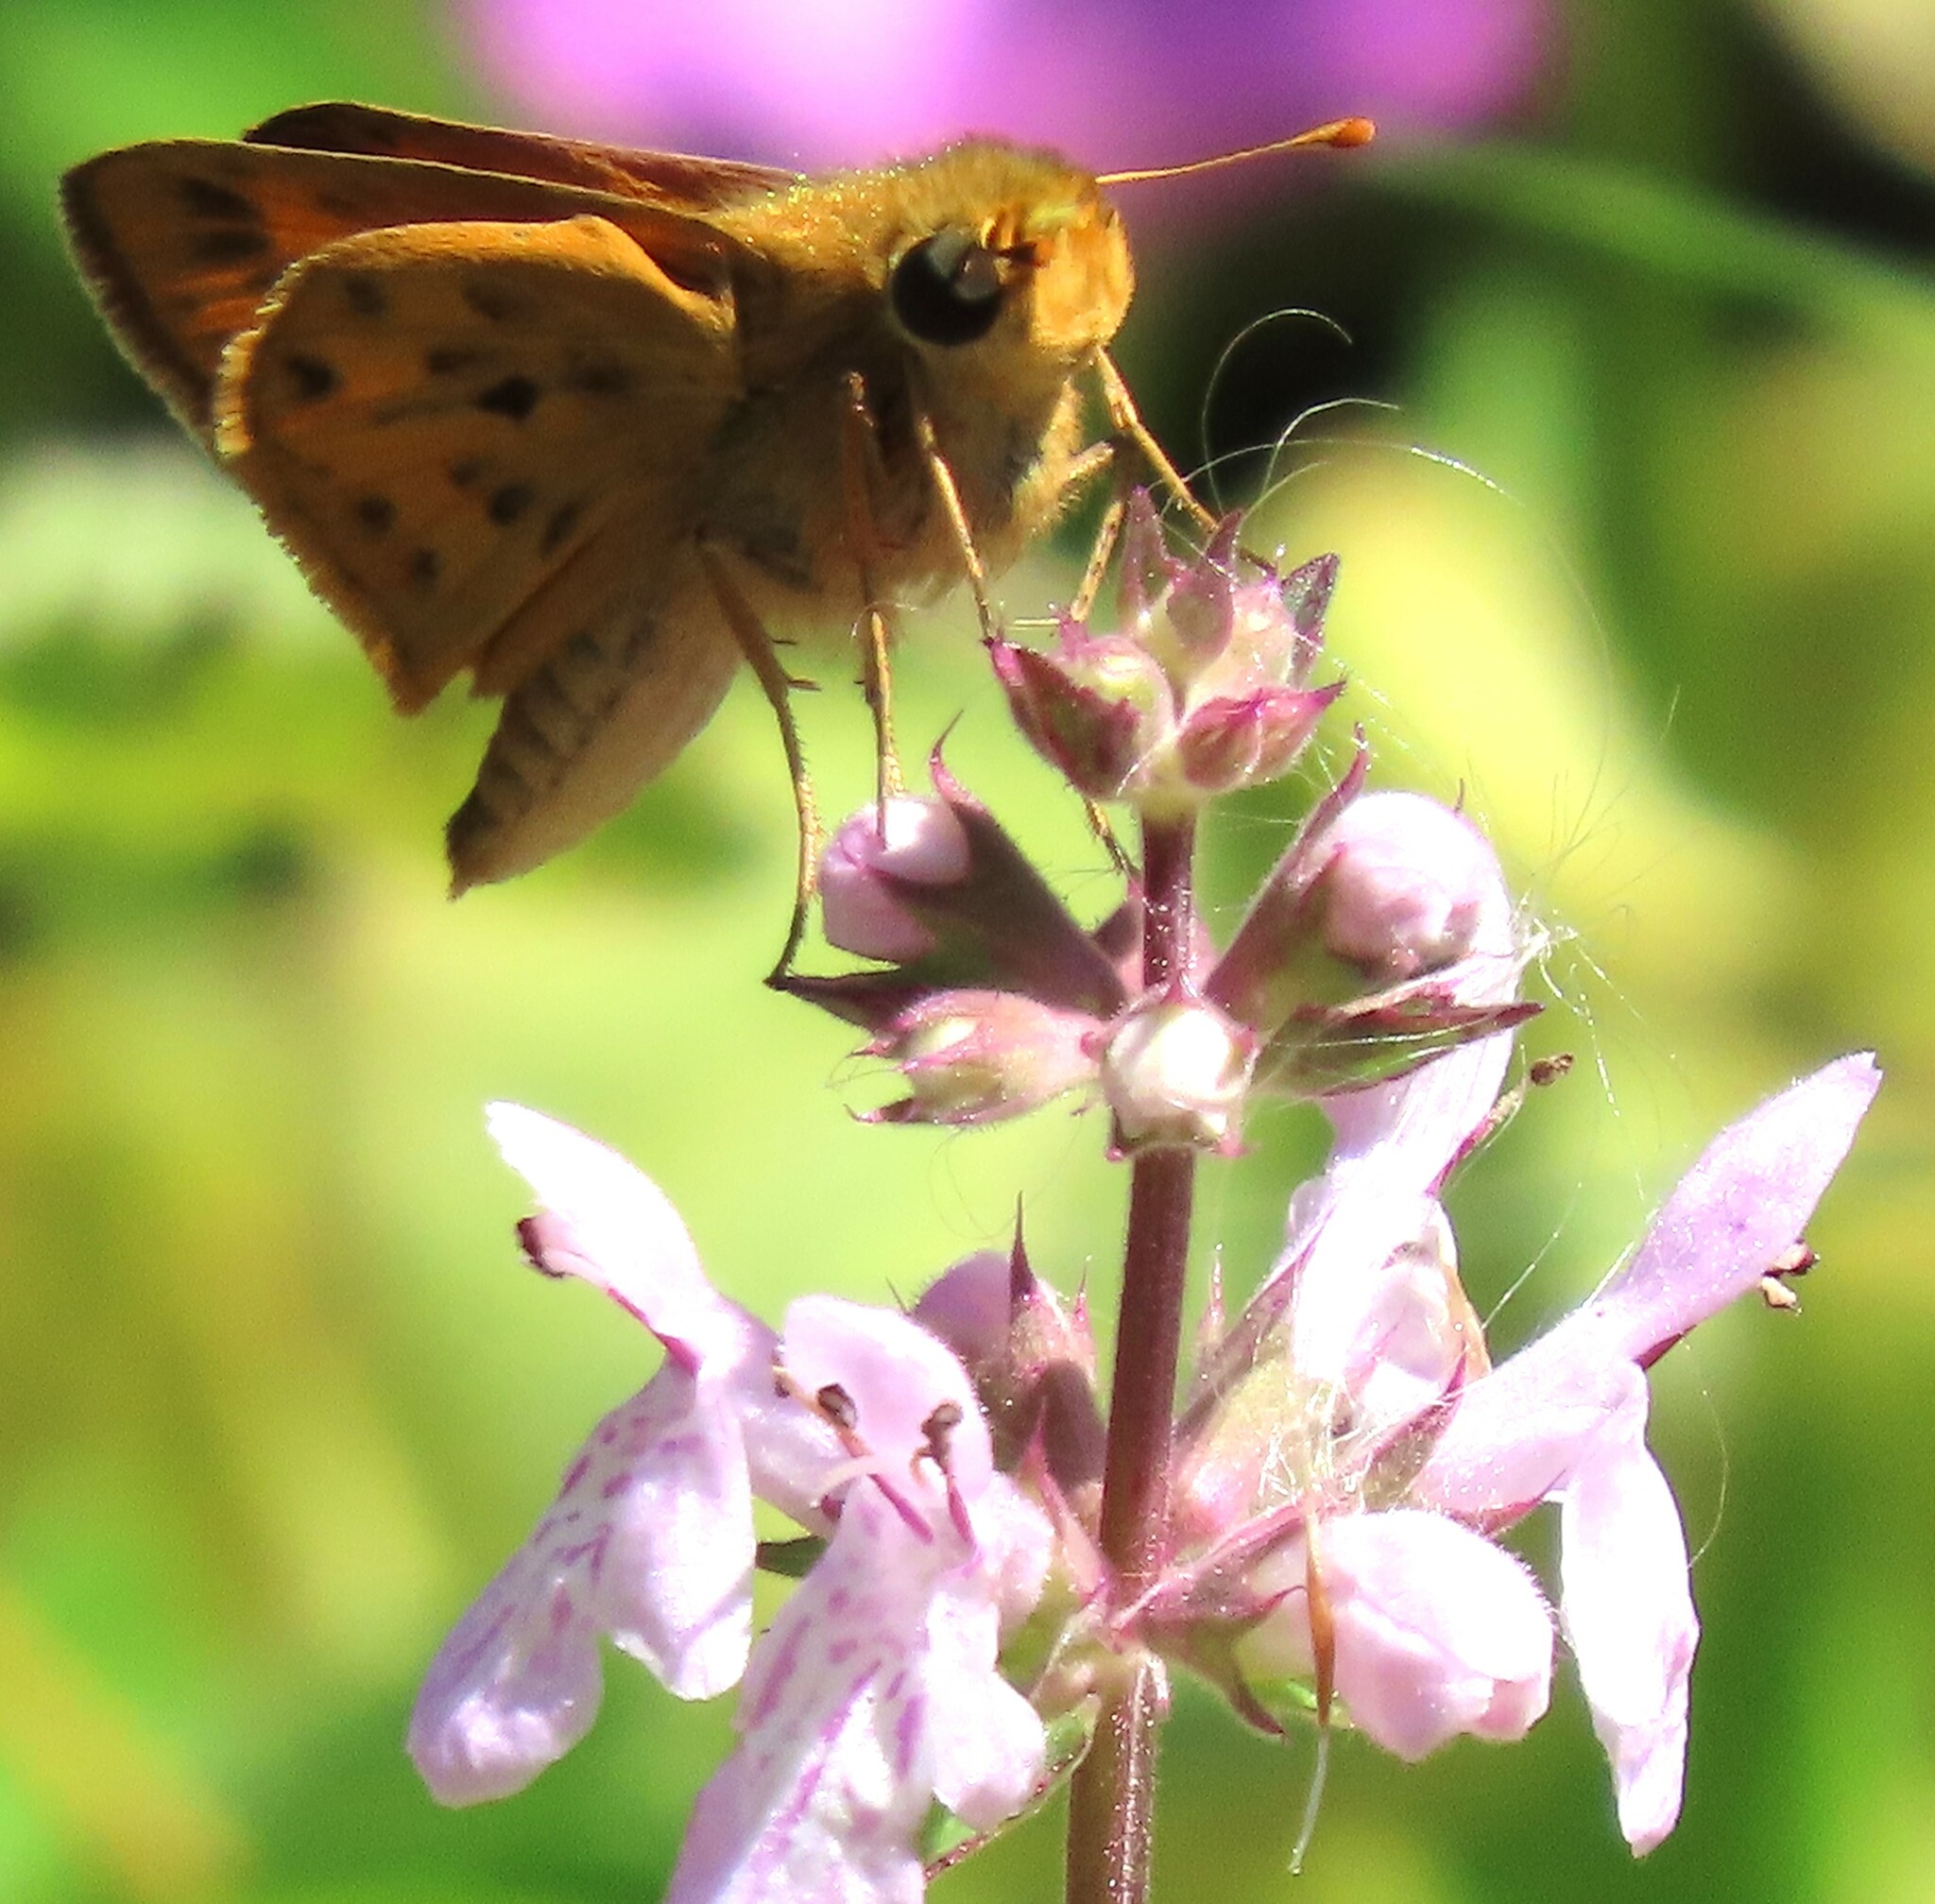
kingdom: Animalia
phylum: Arthropoda
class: Insecta
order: Lepidoptera
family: Hesperiidae
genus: Hylephila
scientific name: Hylephila phyleus
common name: Fiery skipper
